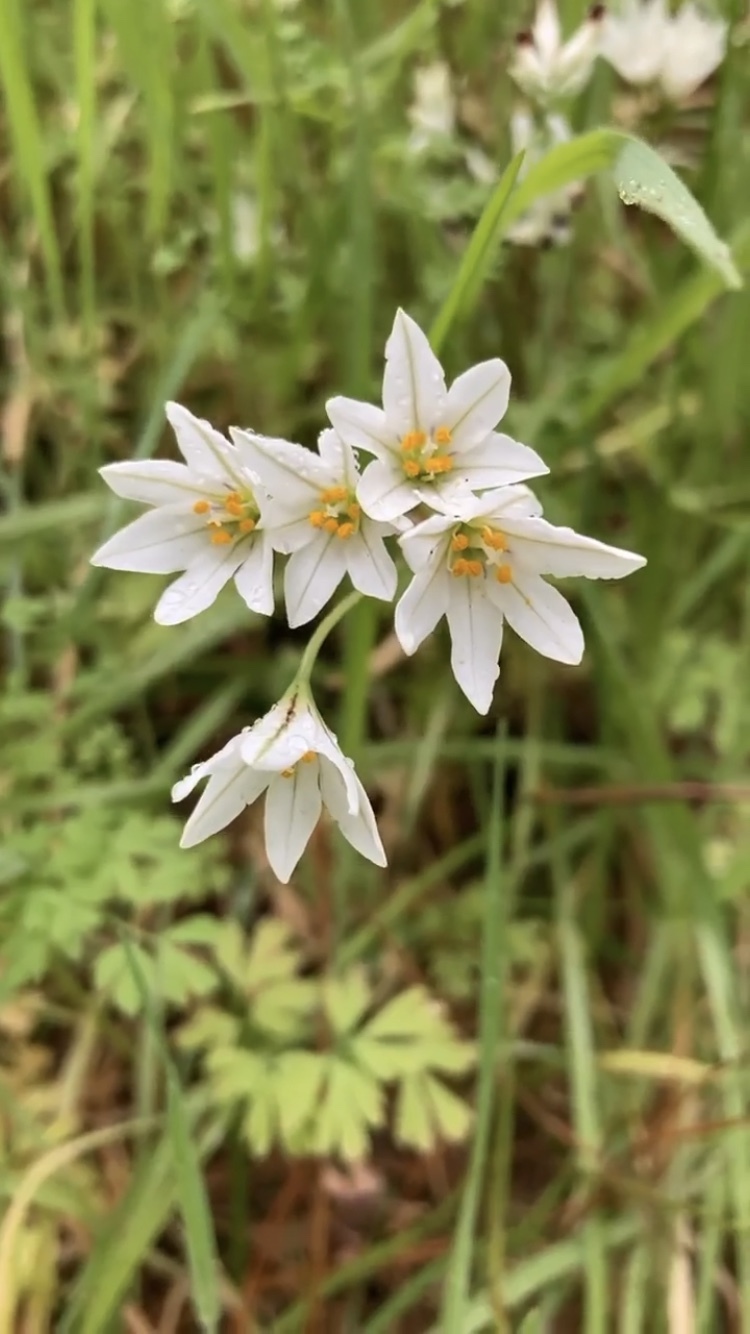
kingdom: Plantae
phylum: Tracheophyta
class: Liliopsida
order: Asparagales
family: Amaryllidaceae
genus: Tristagma
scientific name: Tristagma berteroi
